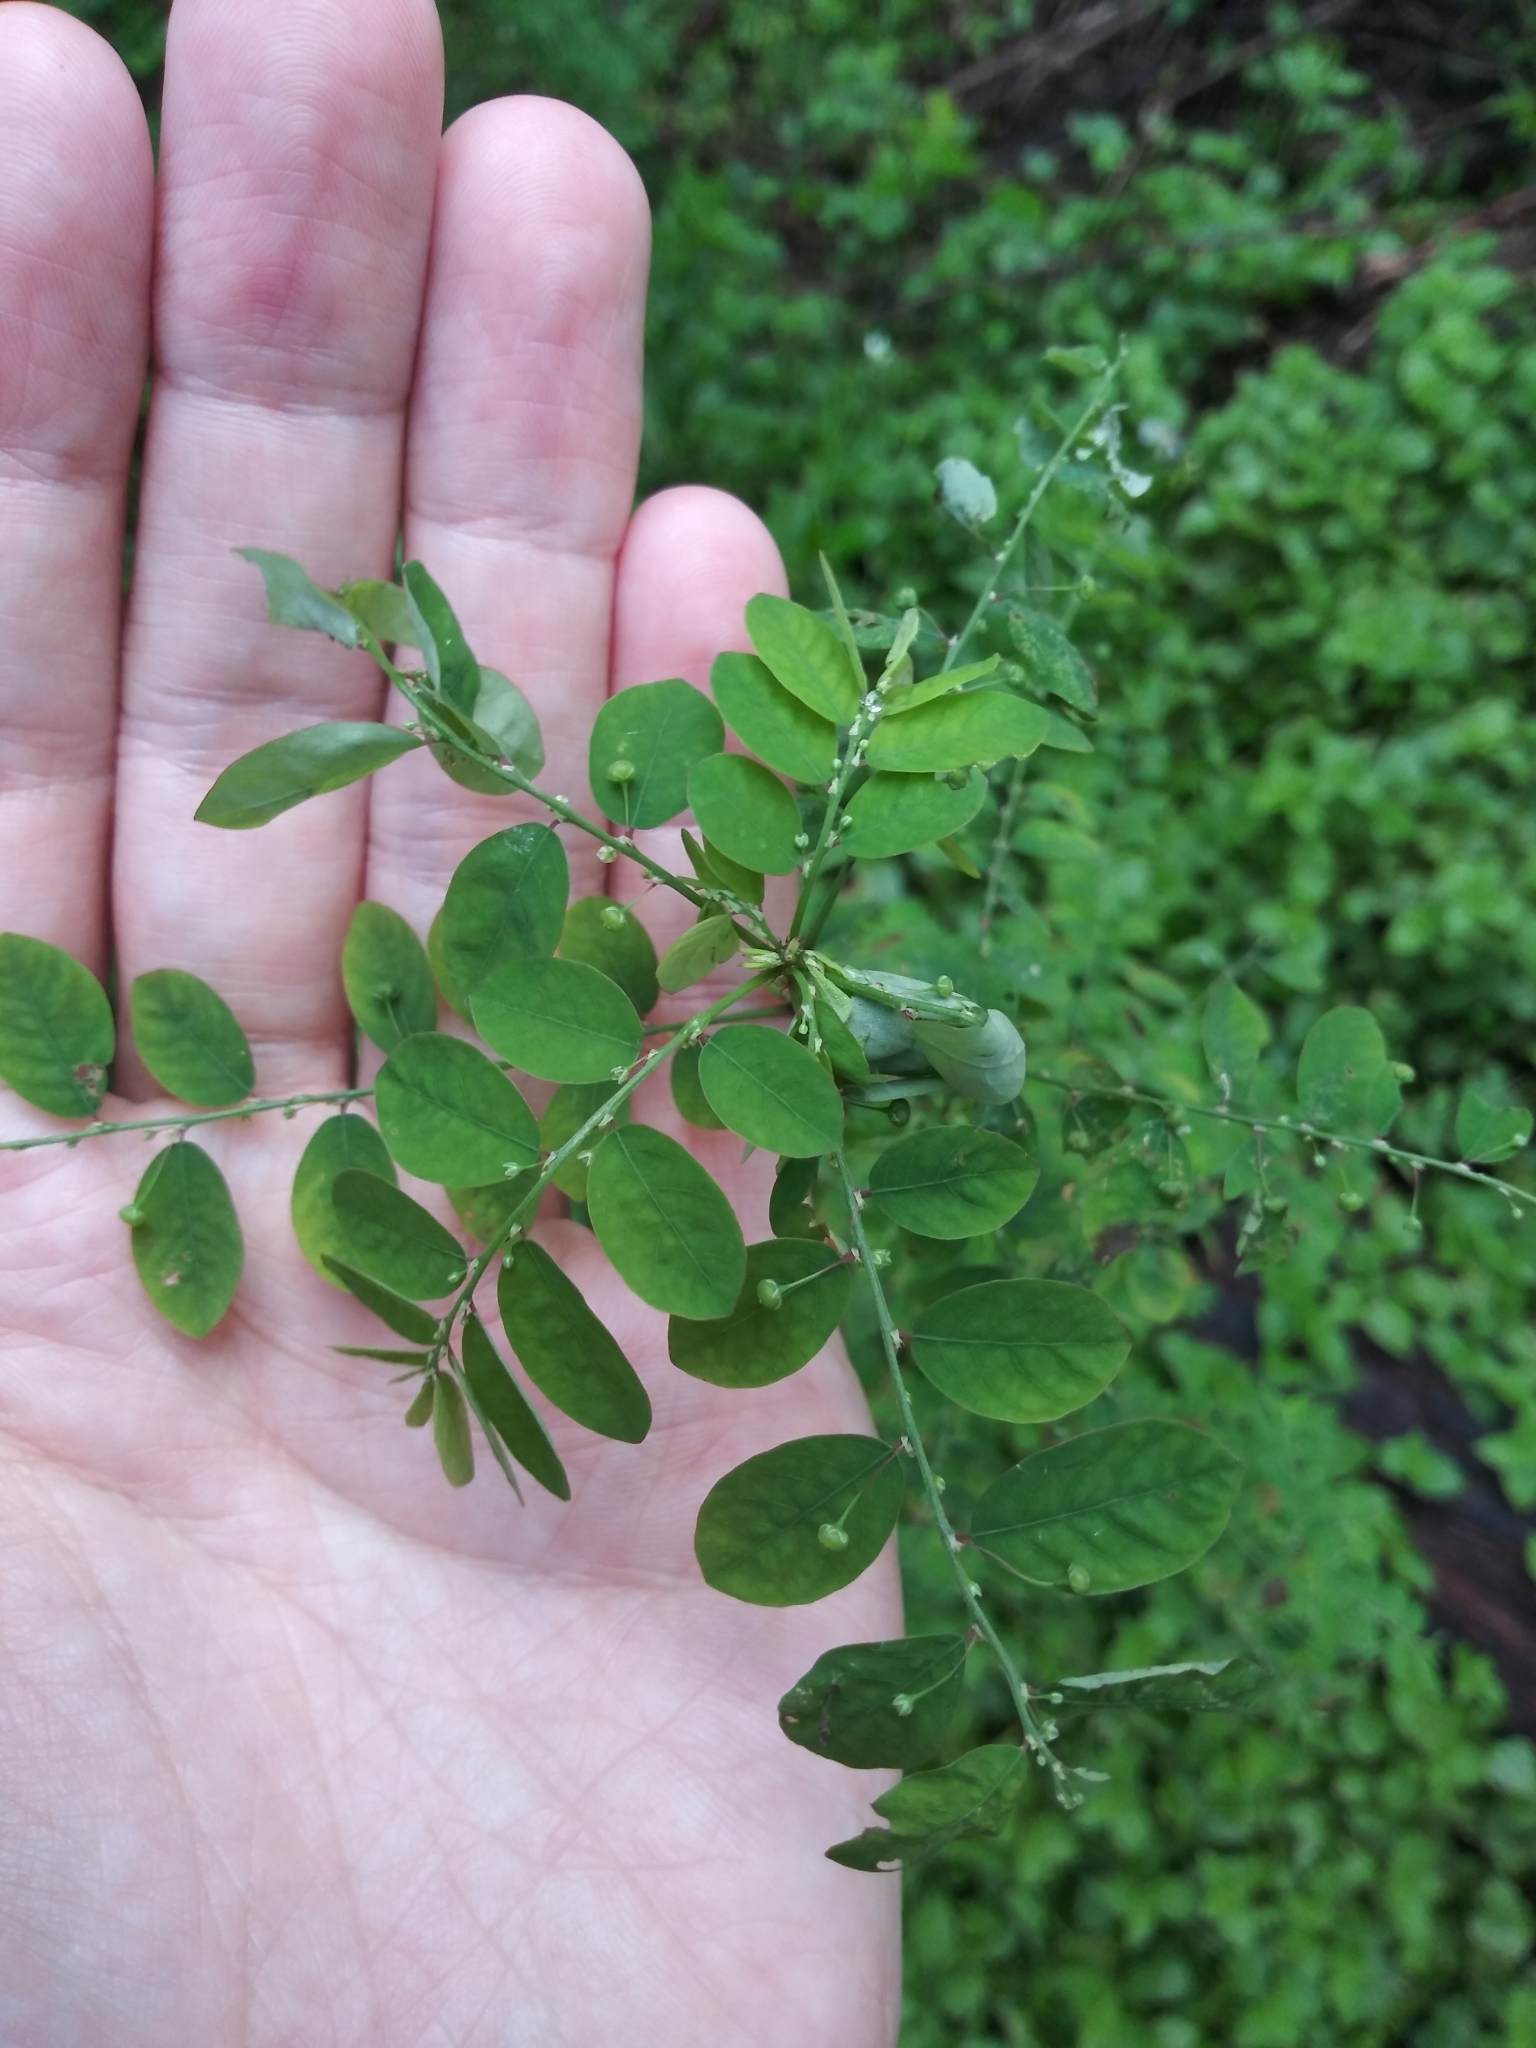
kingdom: Plantae
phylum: Tracheophyta
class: Magnoliopsida
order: Malpighiales
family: Phyllanthaceae
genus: Phyllanthus
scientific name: Phyllanthus tenellus
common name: Mascarene island leaf-flower
